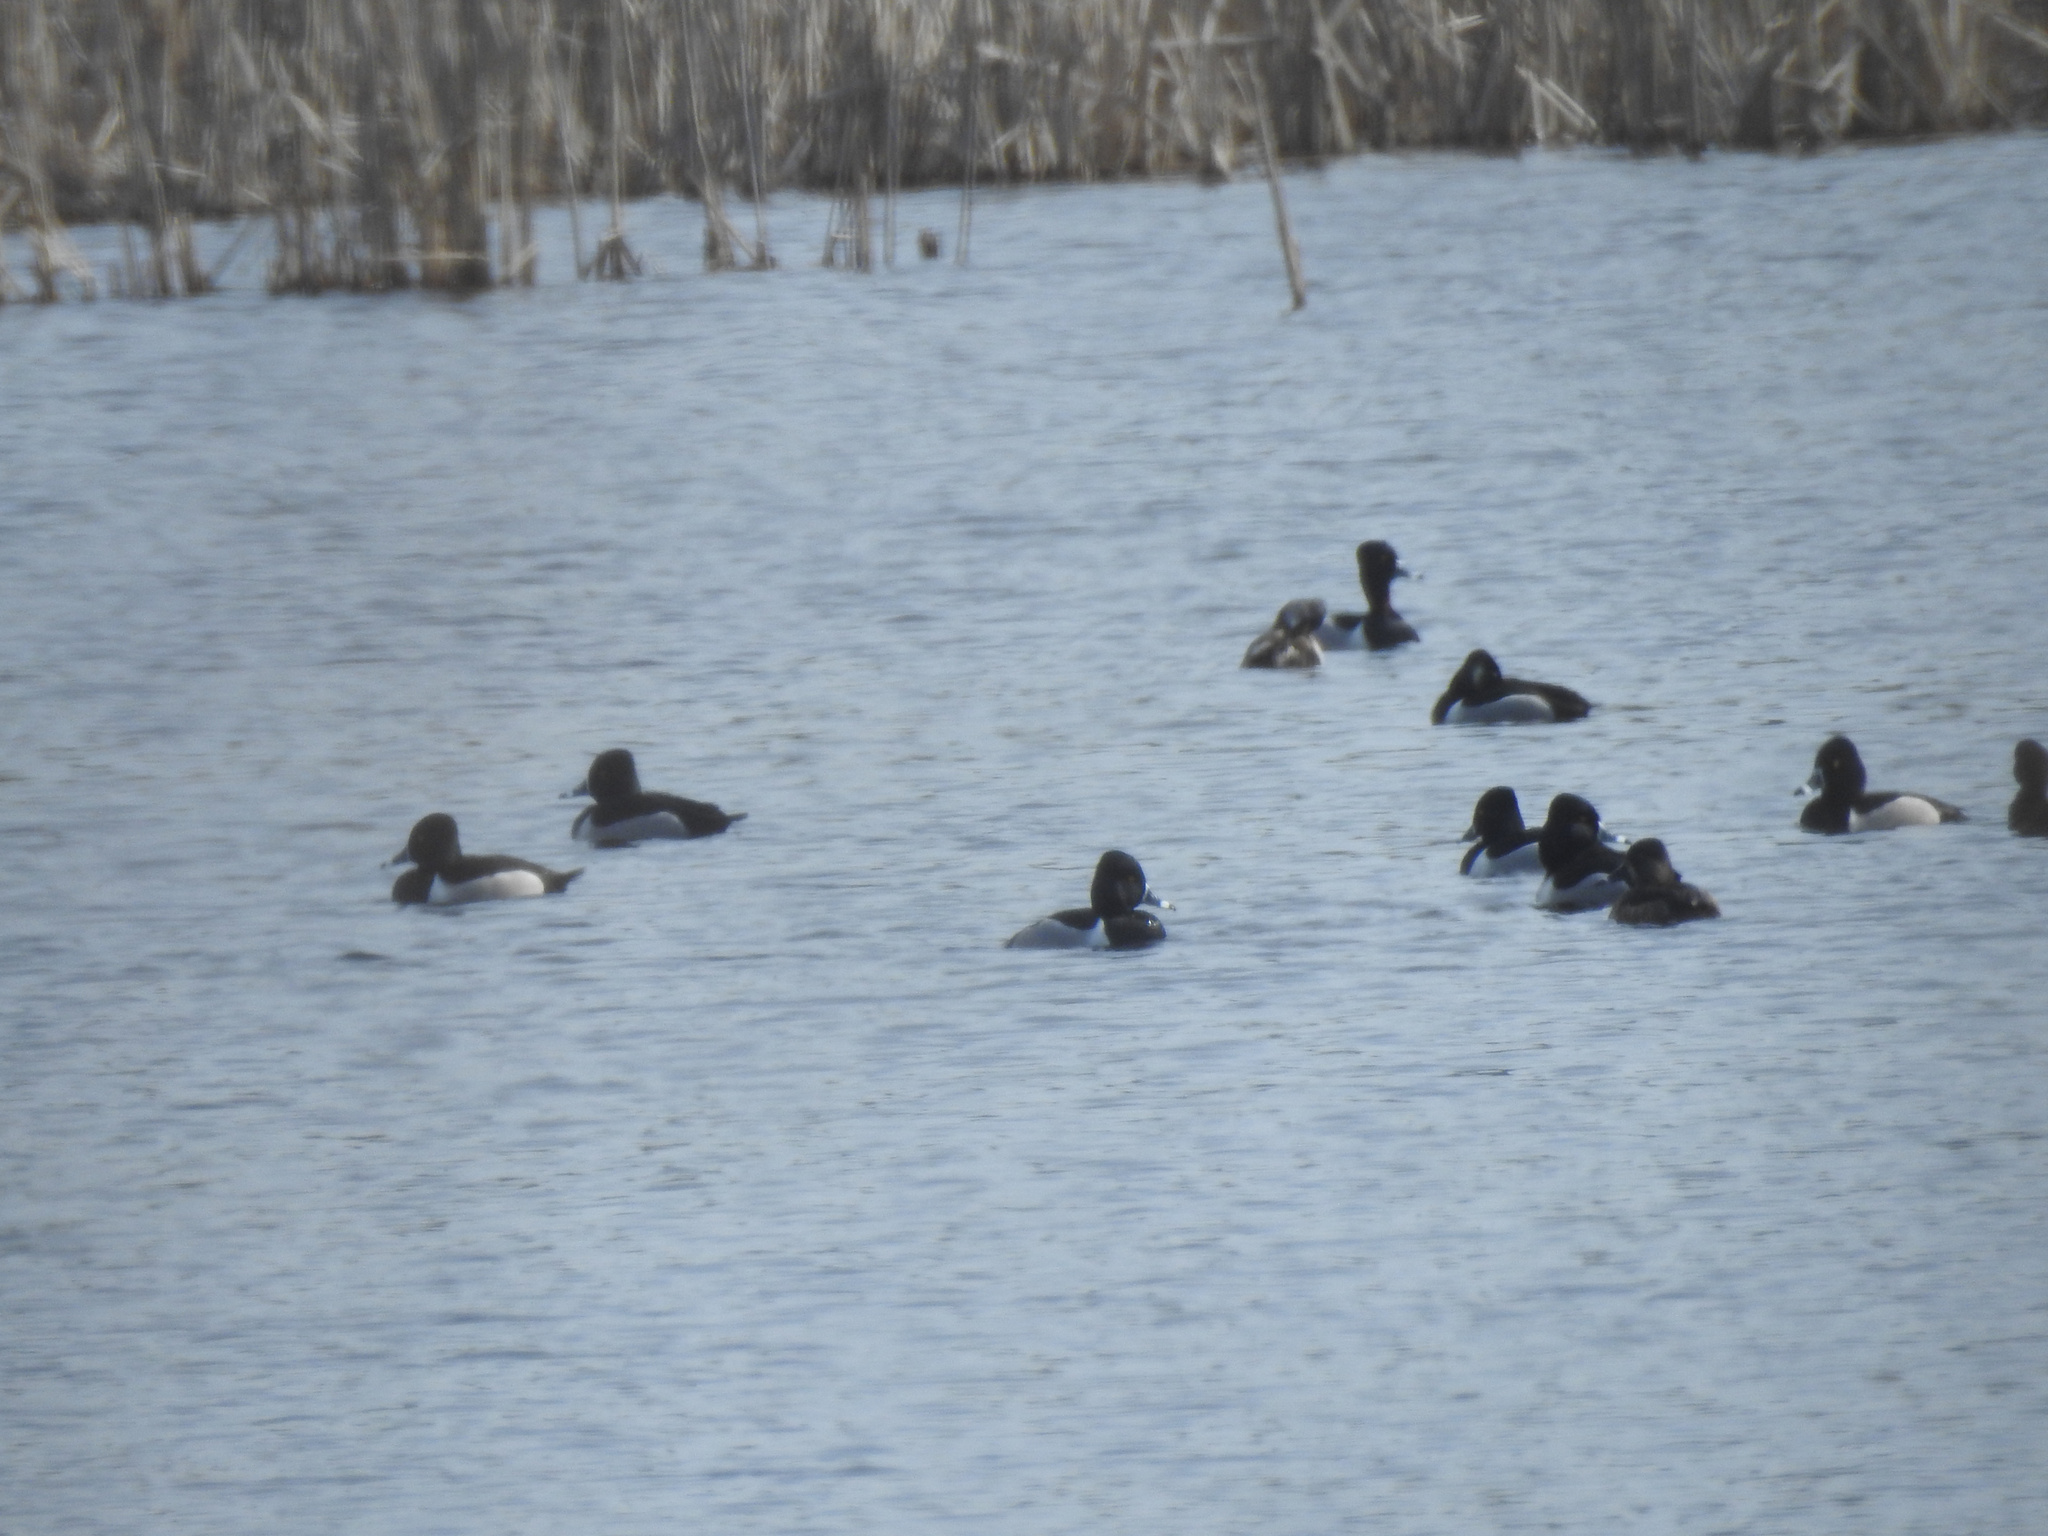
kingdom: Animalia
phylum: Chordata
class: Aves
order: Anseriformes
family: Anatidae
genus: Aythya
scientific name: Aythya collaris
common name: Ring-necked duck
